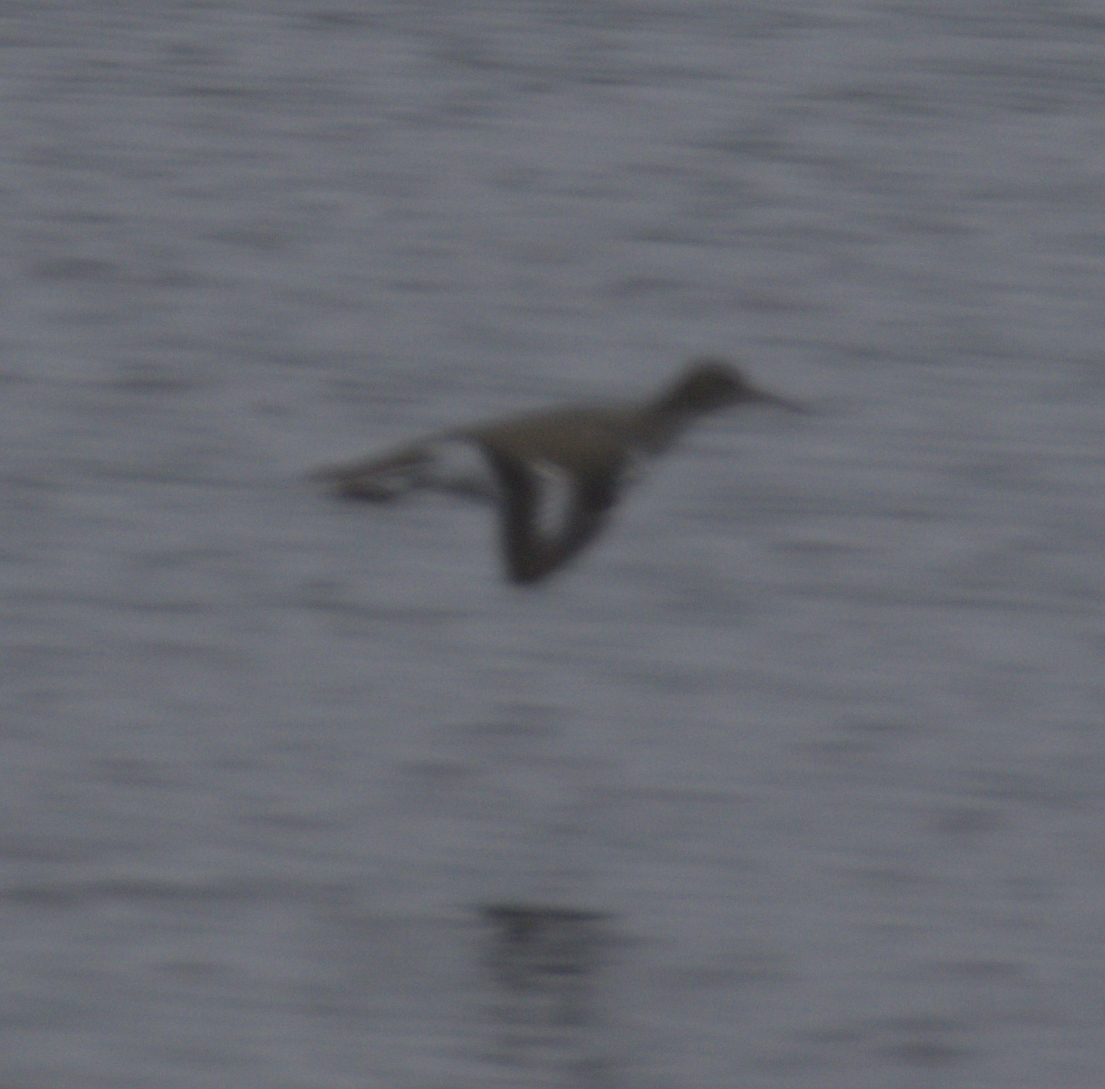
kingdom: Animalia
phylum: Chordata
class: Aves
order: Charadriiformes
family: Scolopacidae
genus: Actitis
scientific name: Actitis macularius
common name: Spotted sandpiper
